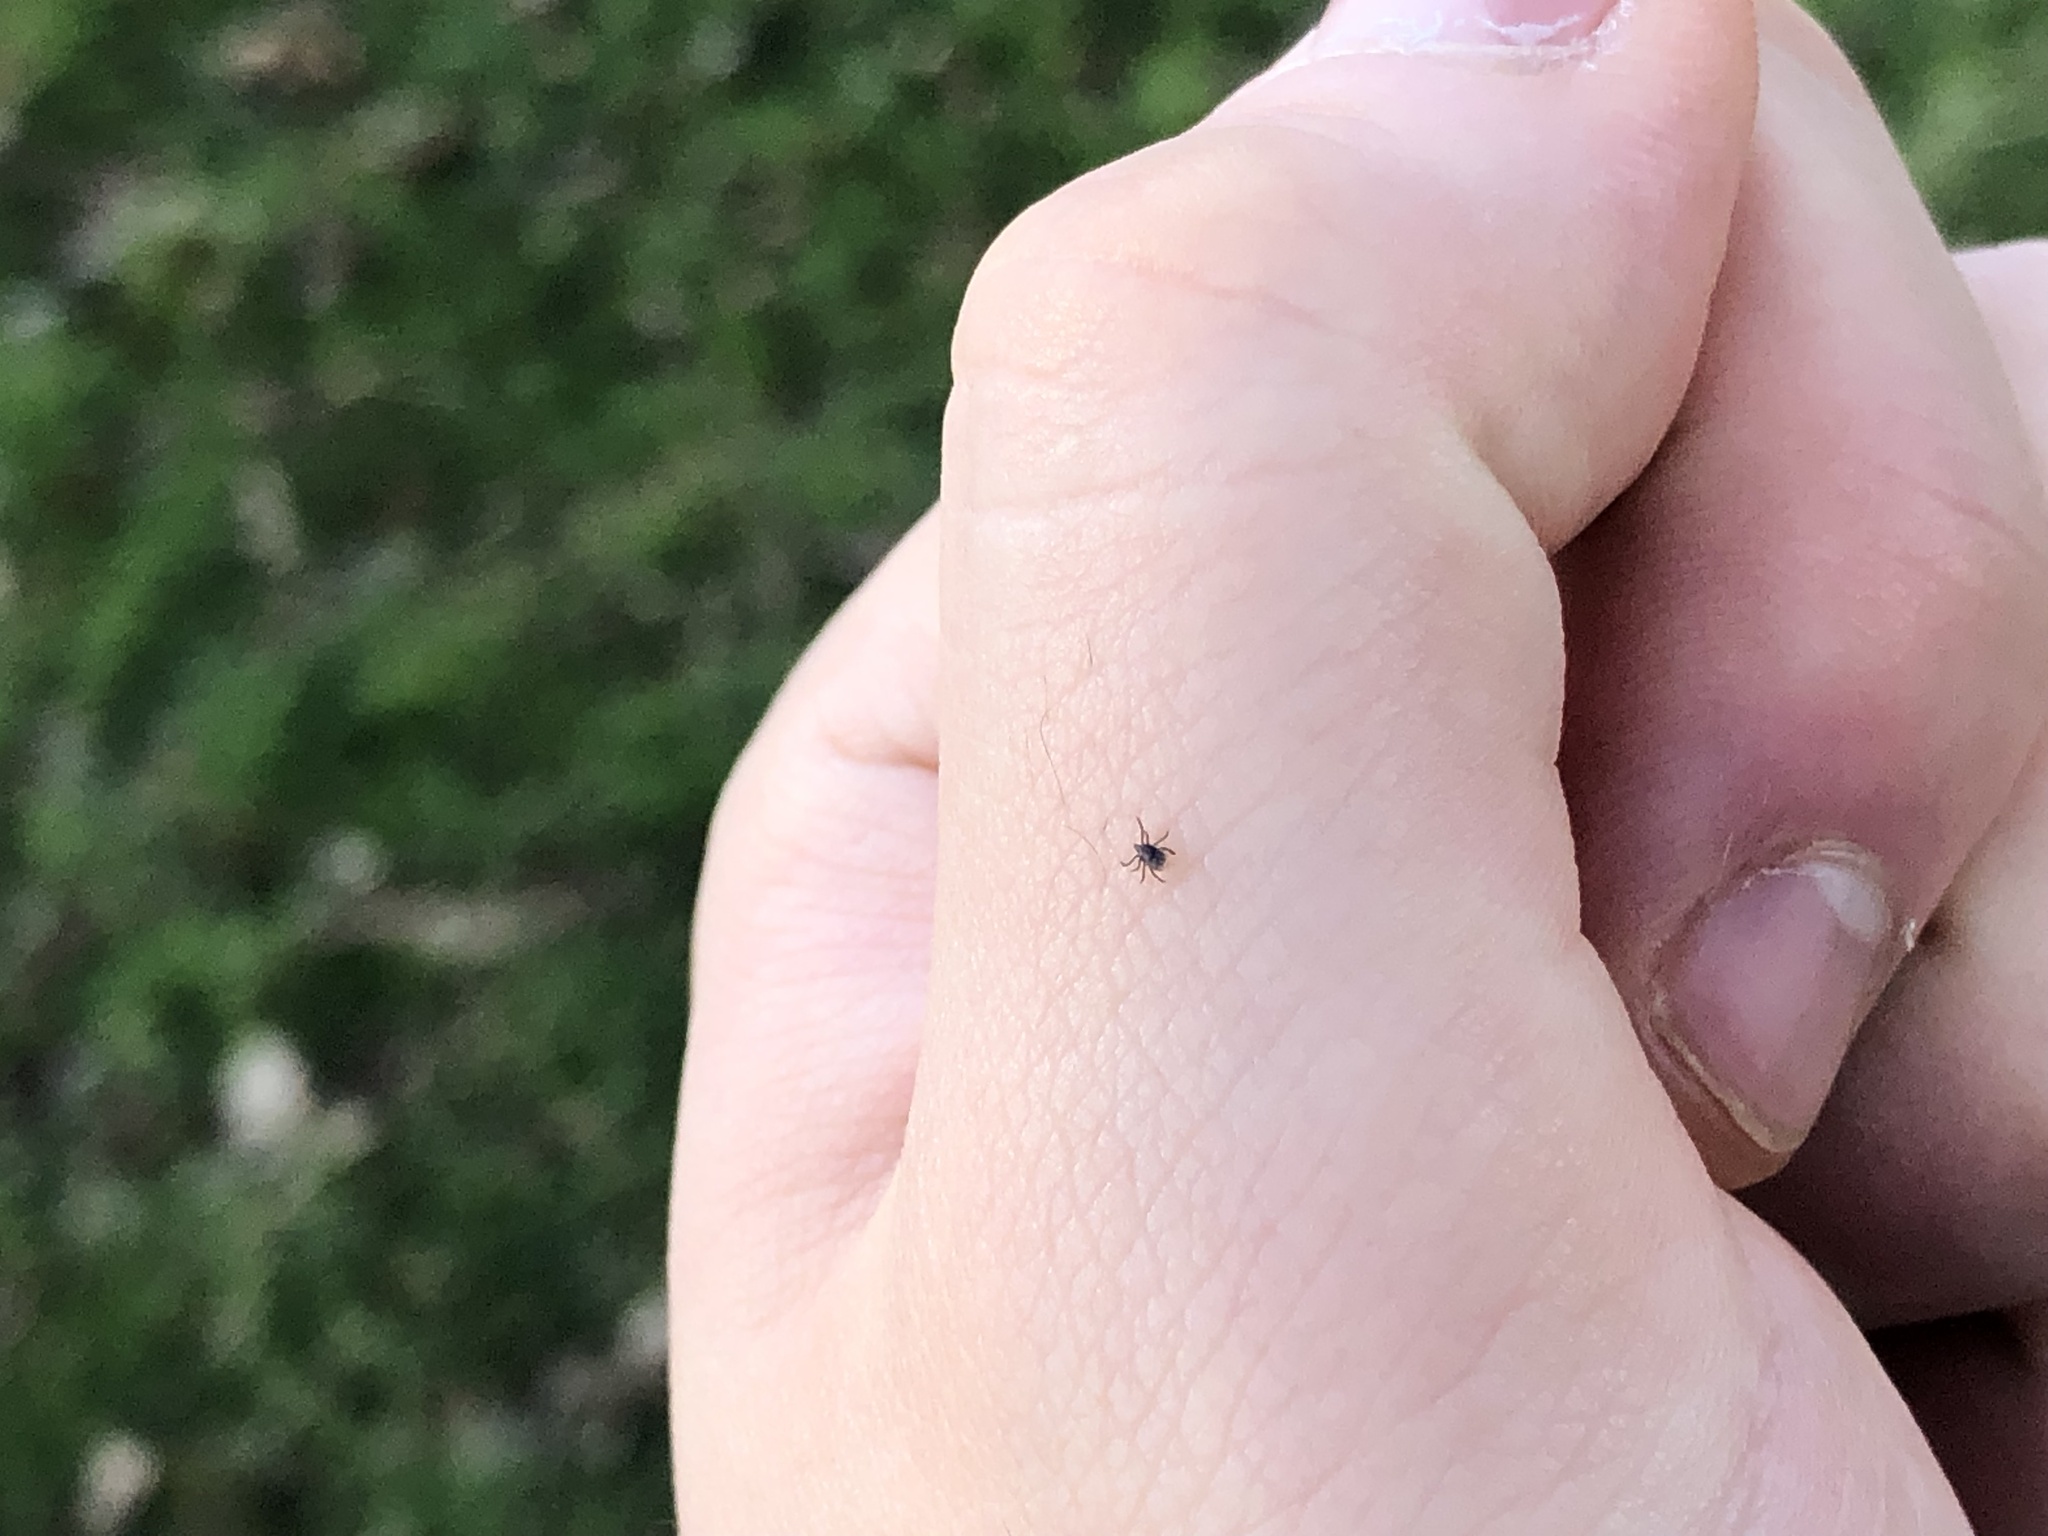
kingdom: Animalia
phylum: Arthropoda
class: Arachnida
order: Ixodida
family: Ixodidae
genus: Ixodes
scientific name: Ixodes ricinus
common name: Castor bean tick
